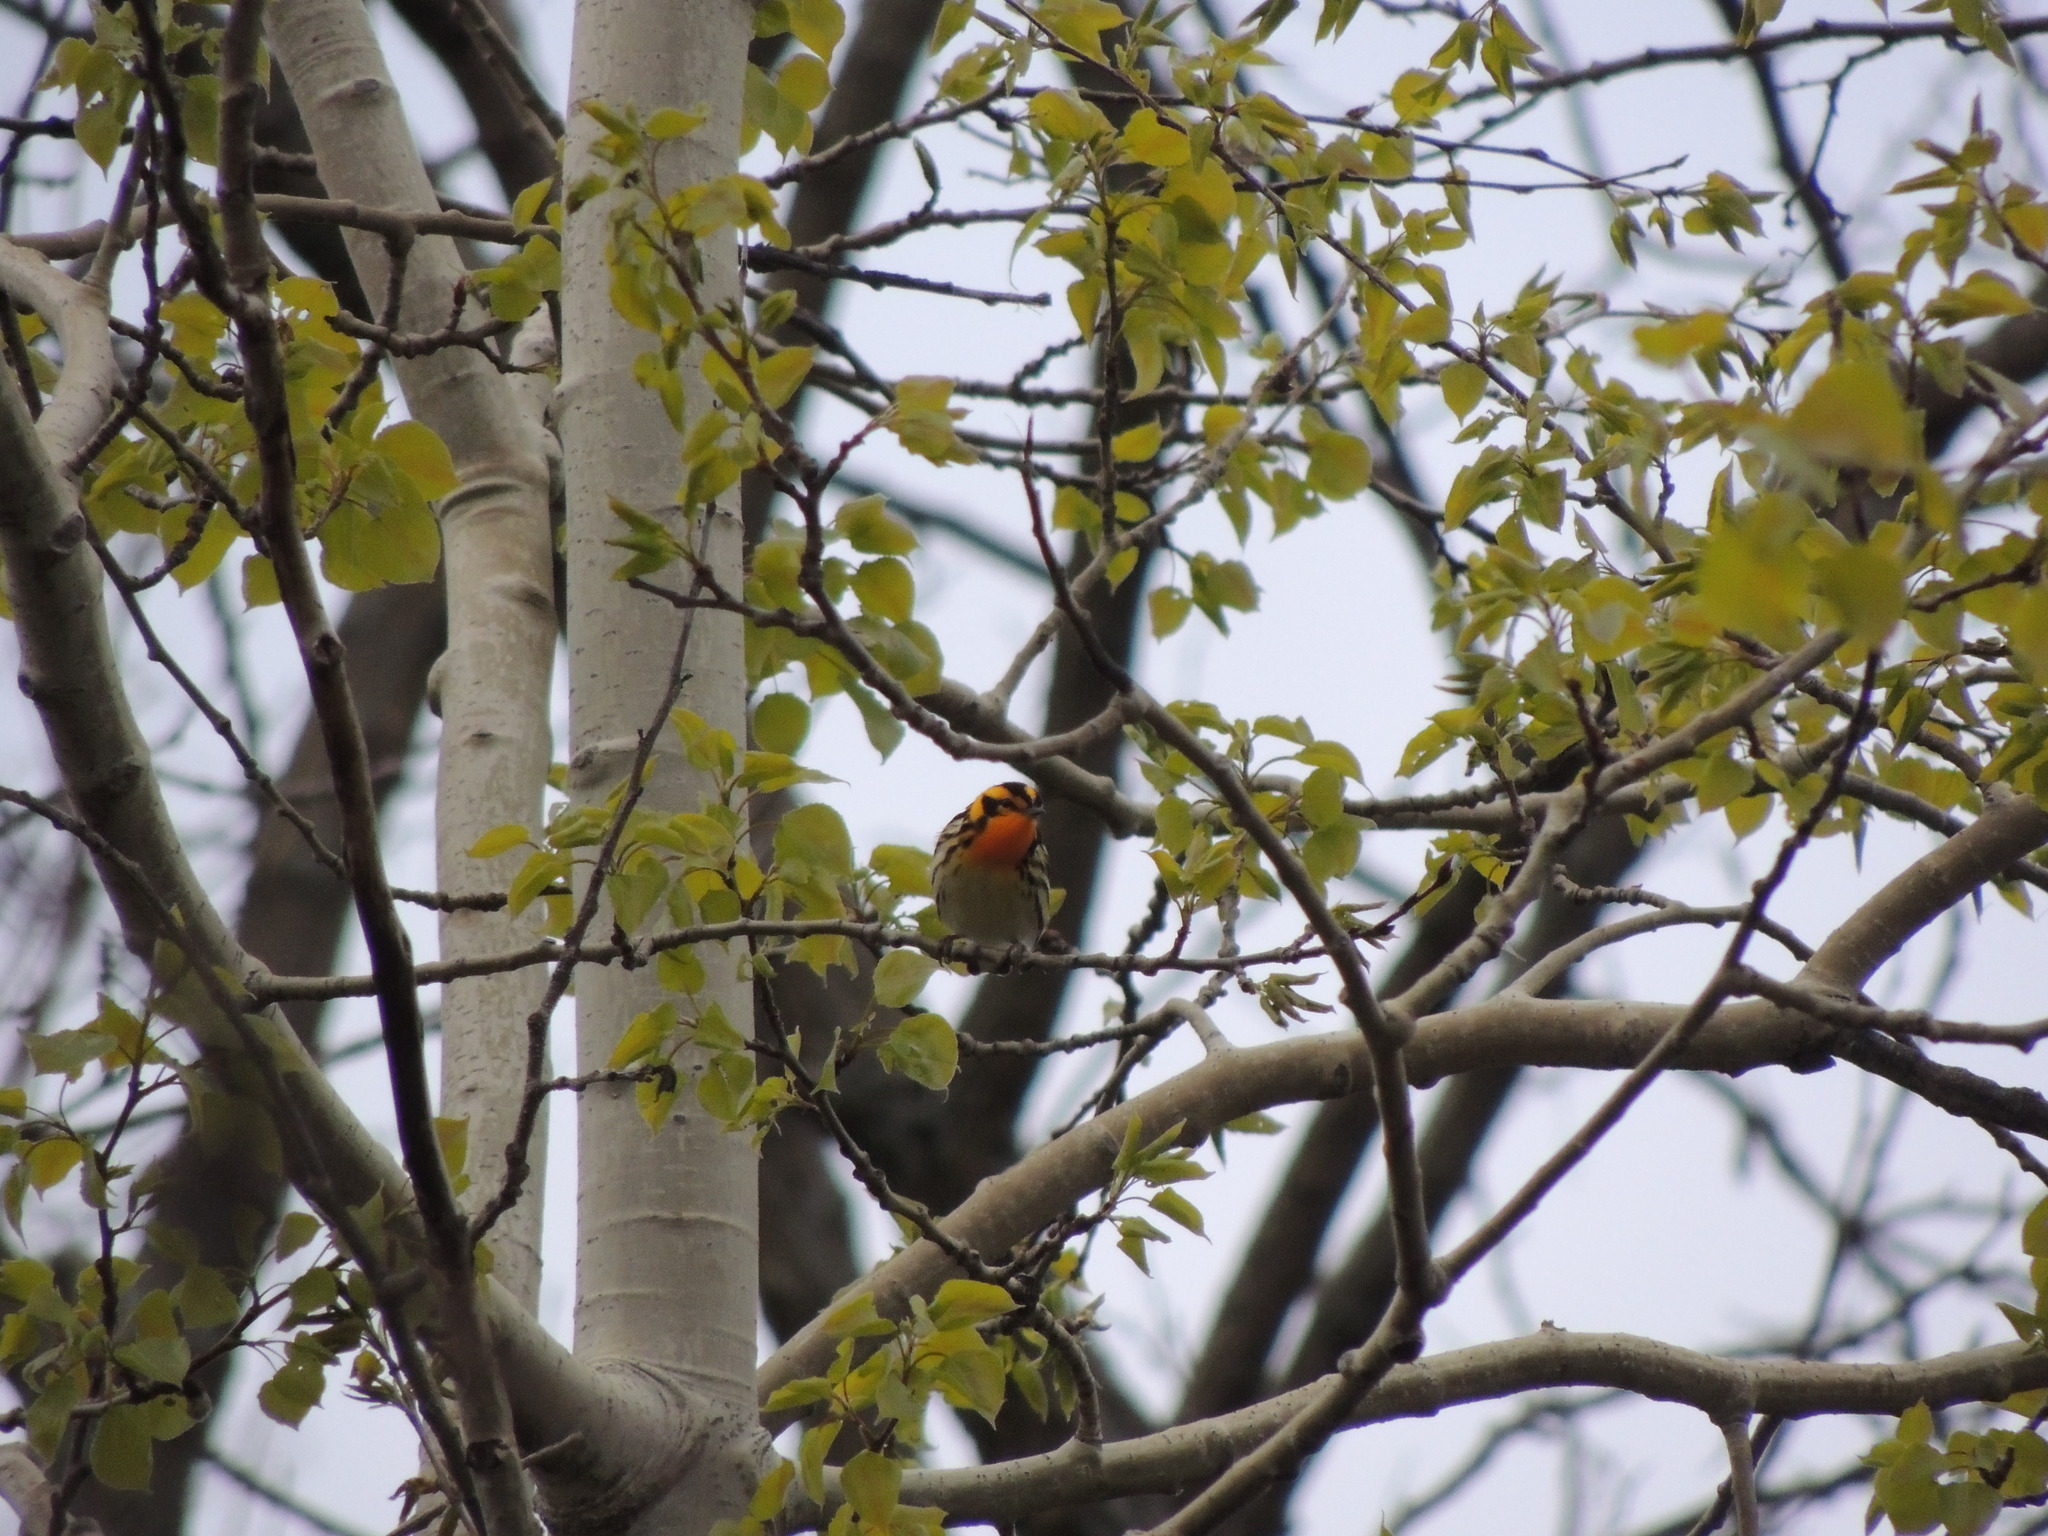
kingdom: Animalia
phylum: Chordata
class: Aves
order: Passeriformes
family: Parulidae
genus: Setophaga
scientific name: Setophaga fusca
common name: Blackburnian warbler
